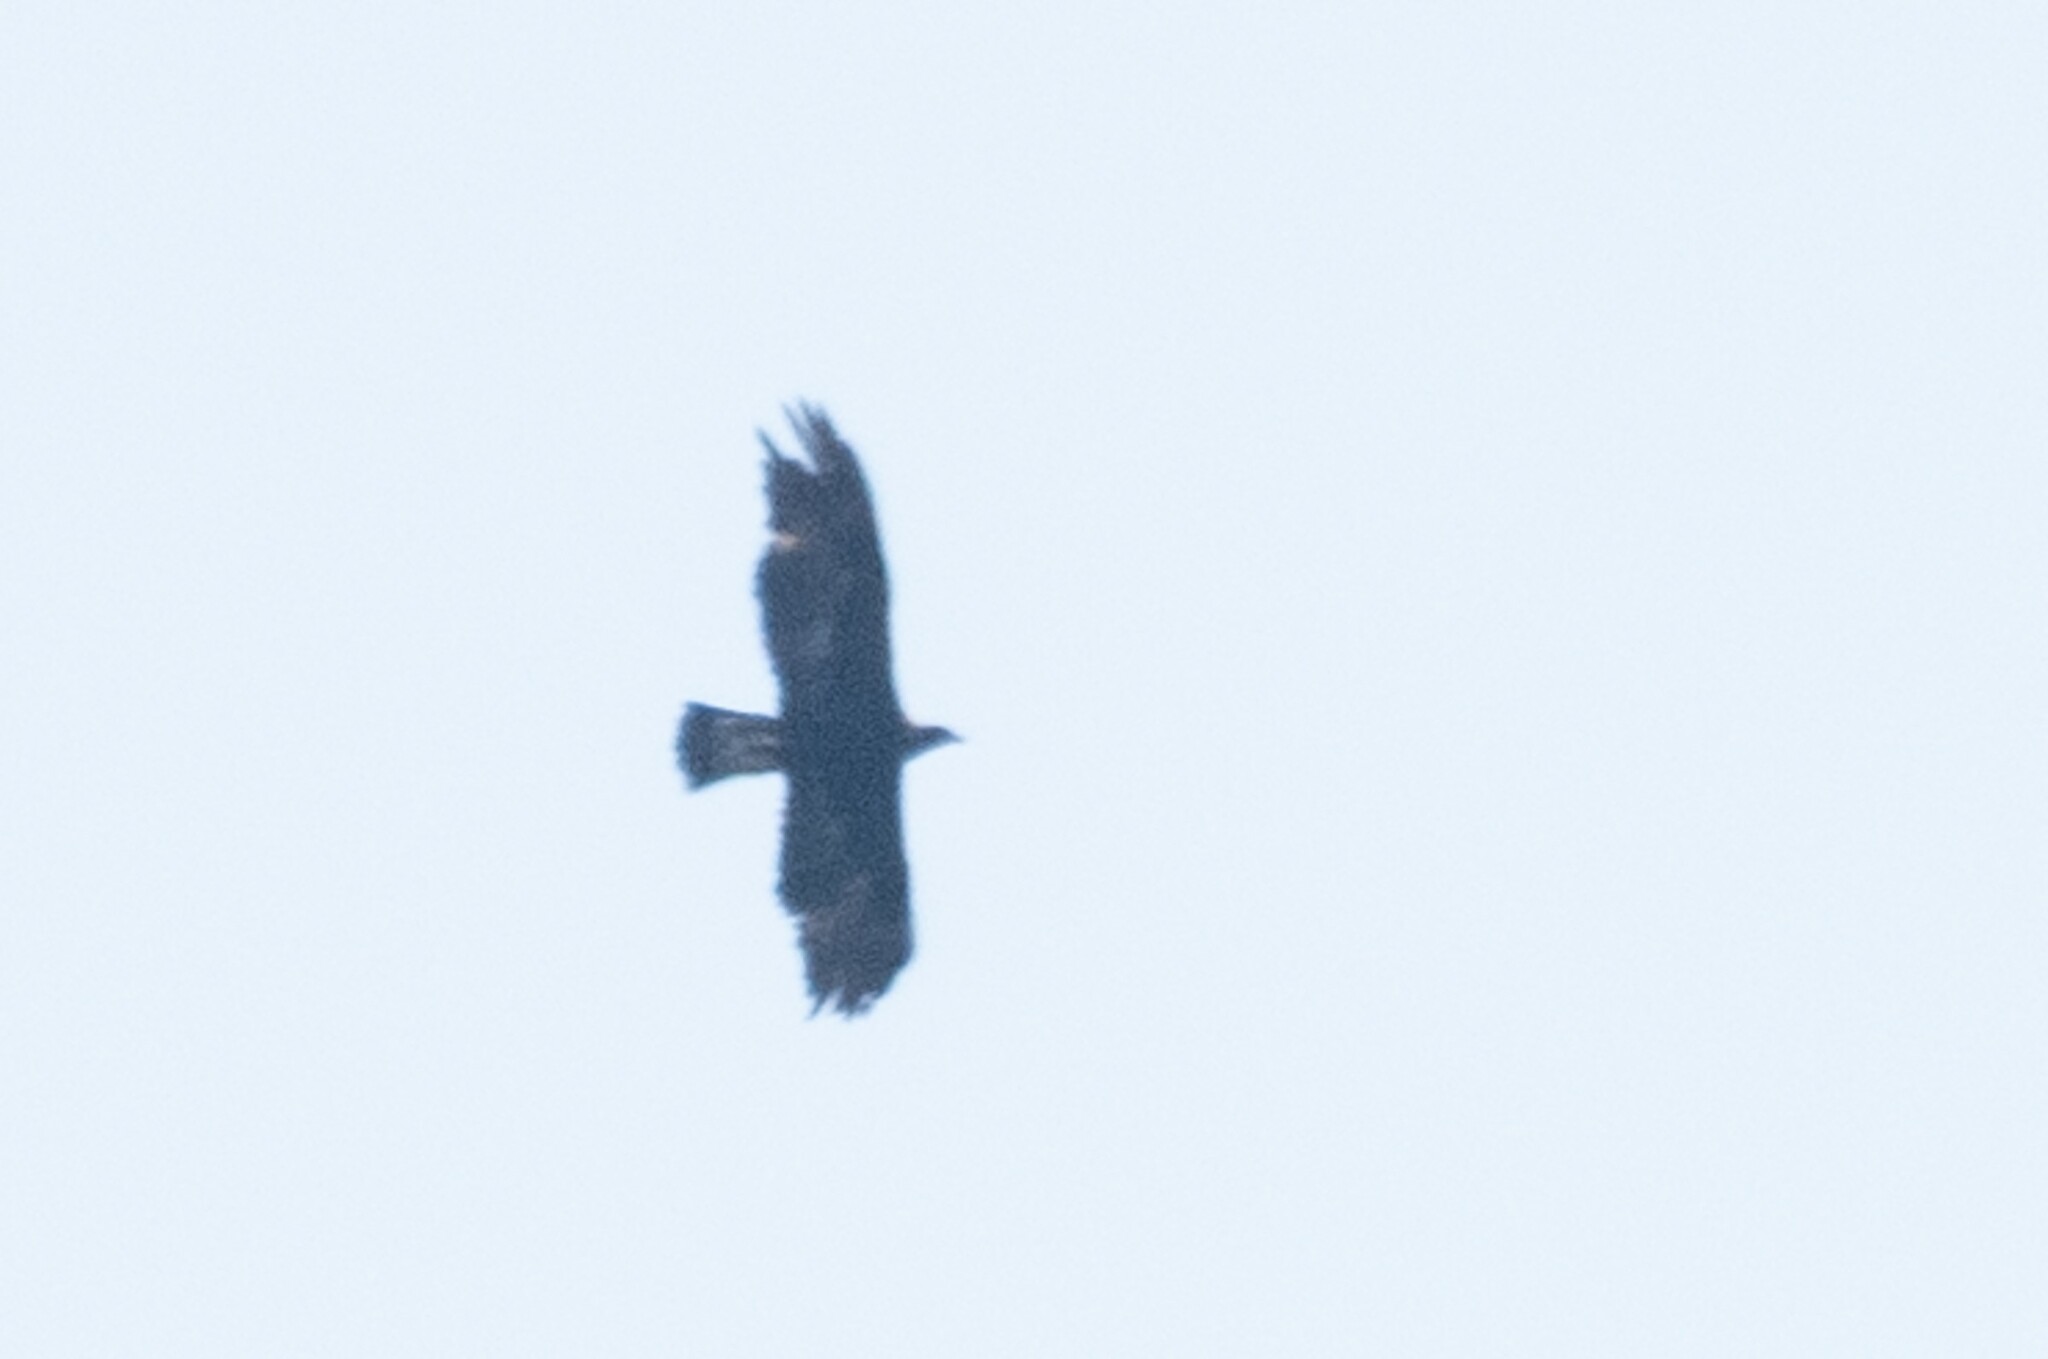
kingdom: Animalia
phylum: Chordata
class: Aves
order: Accipitriformes
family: Accipitridae
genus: Aquila
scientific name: Aquila chrysaetos
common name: Golden eagle
